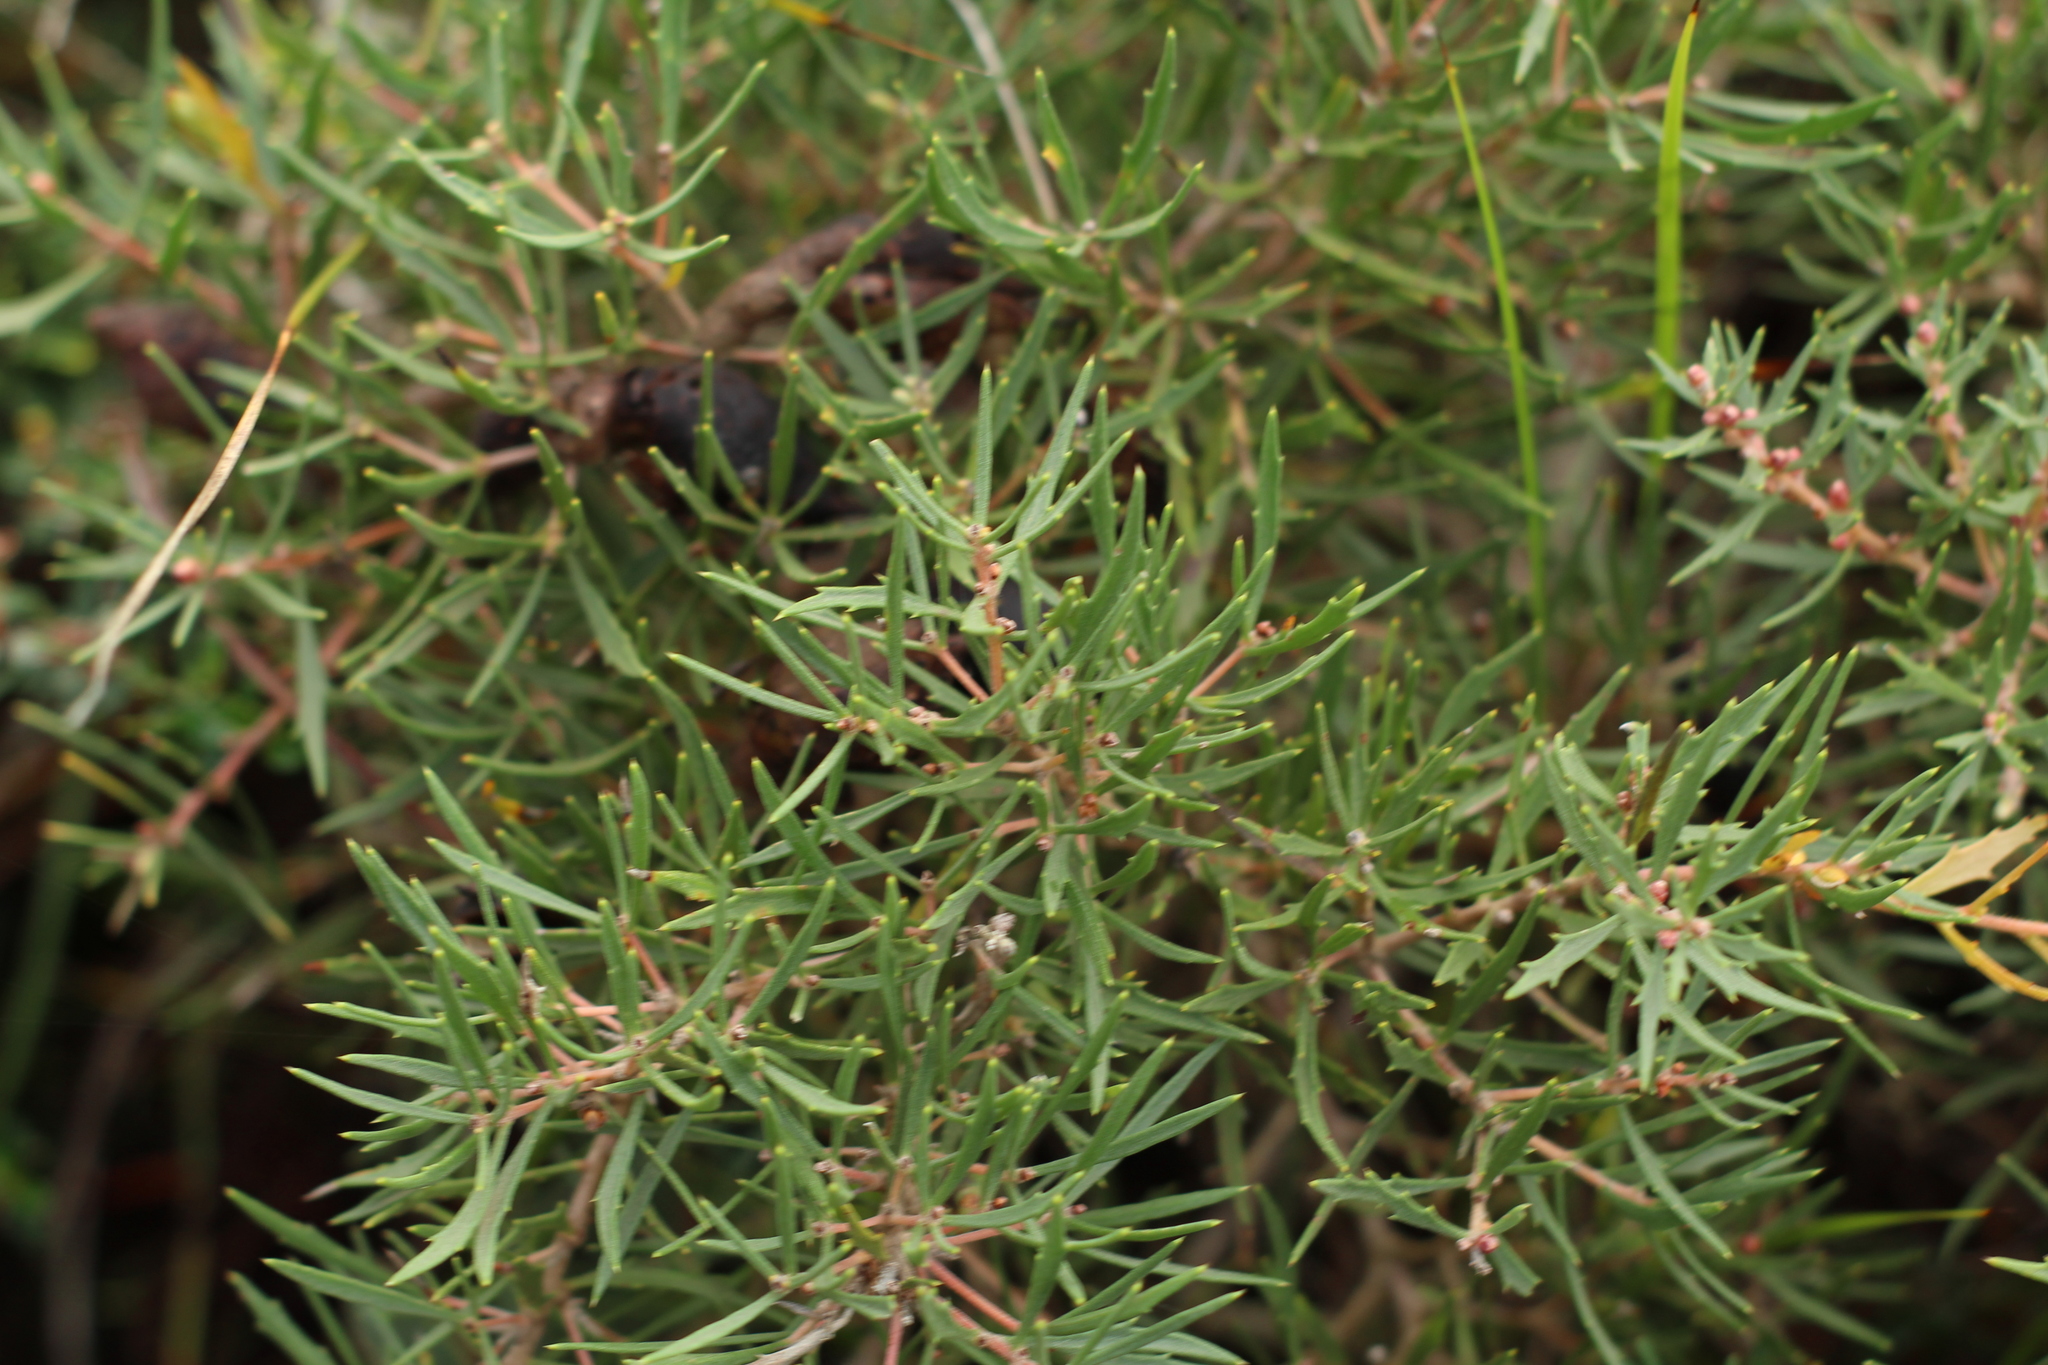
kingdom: Plantae
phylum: Tracheophyta
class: Magnoliopsida
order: Proteales
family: Proteaceae
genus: Hakea
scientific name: Hakea florida
